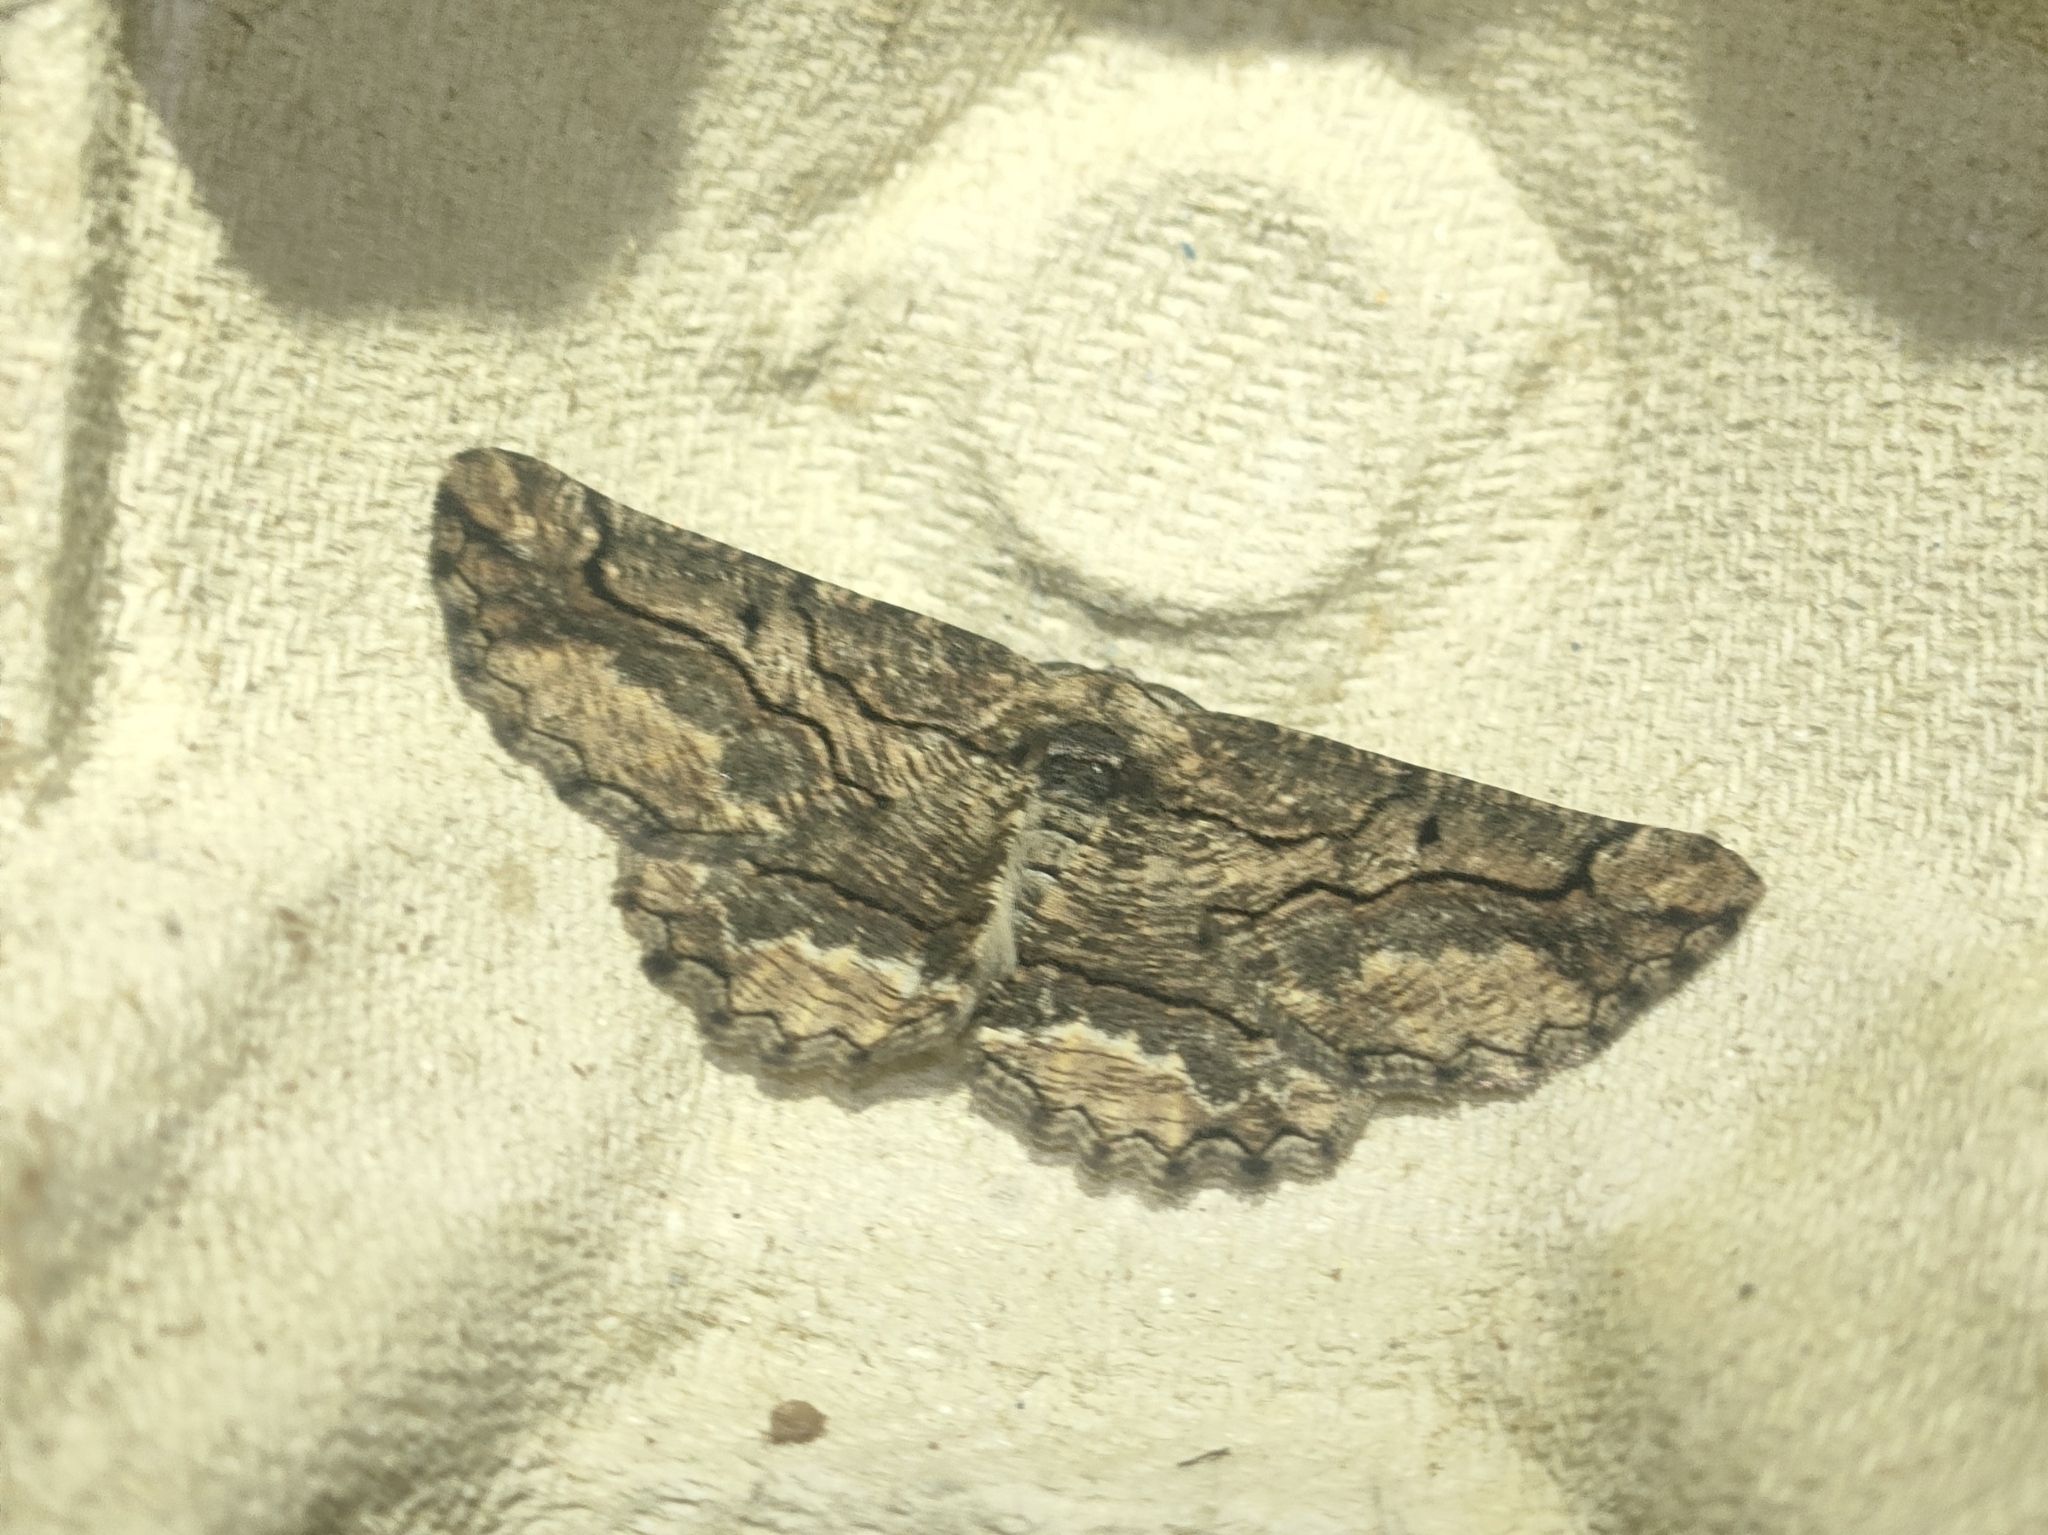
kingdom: Animalia
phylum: Arthropoda
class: Insecta
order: Lepidoptera
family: Geometridae
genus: Menophra
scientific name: Menophra japygiaria
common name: Brassy waved umber
